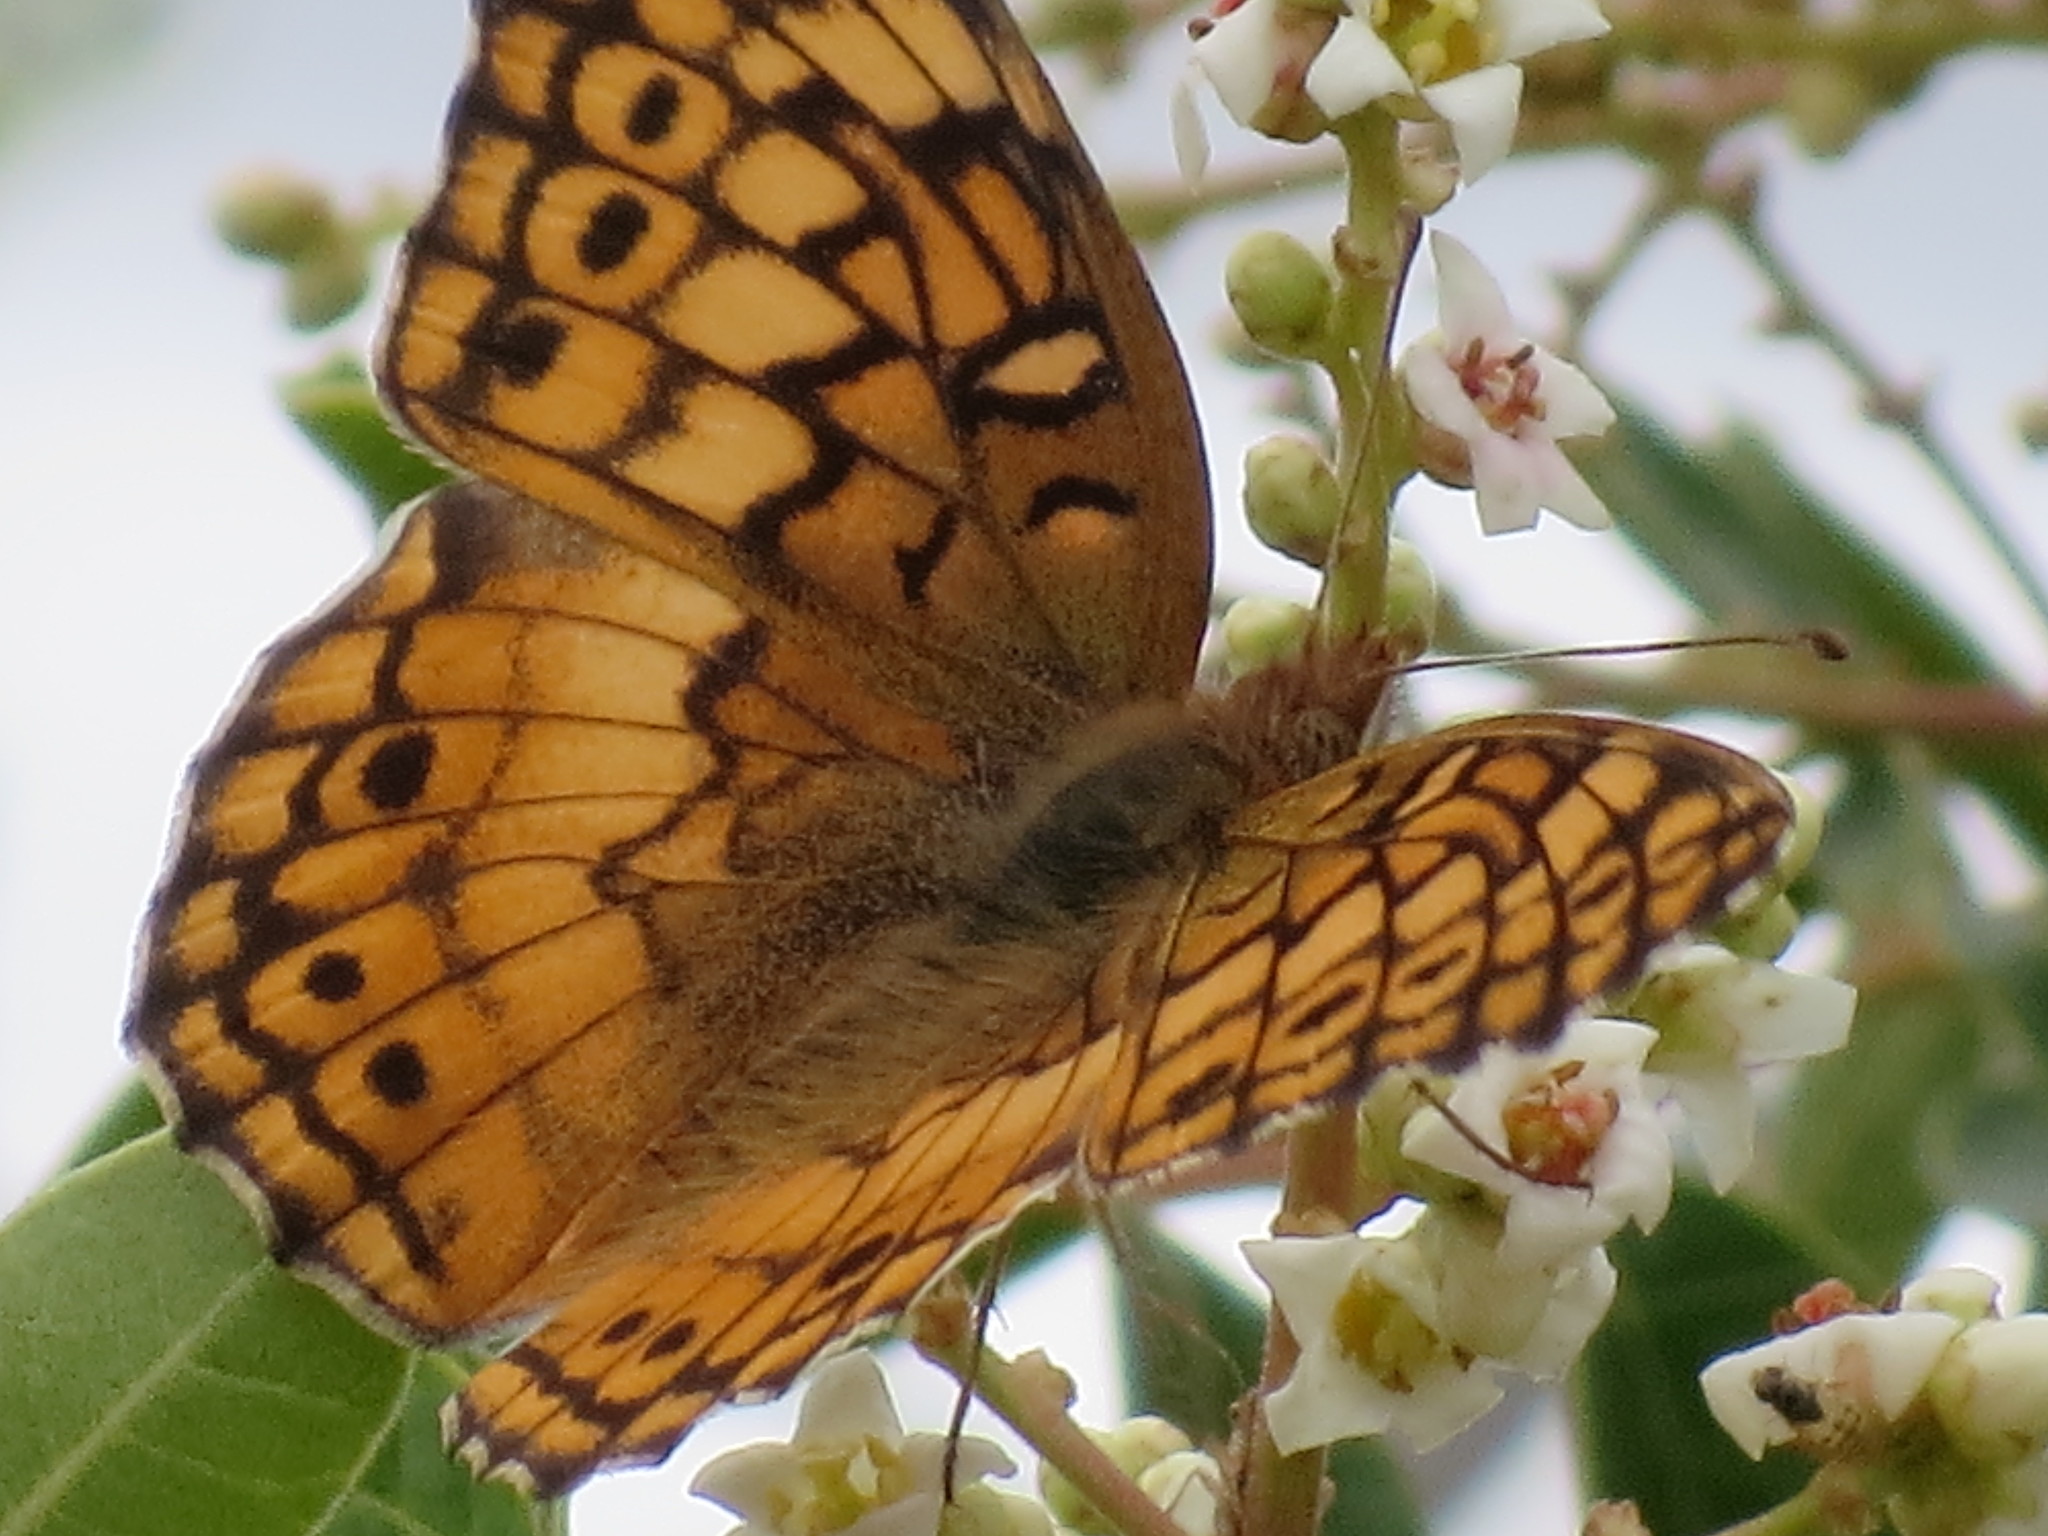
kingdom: Animalia
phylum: Arthropoda
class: Insecta
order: Lepidoptera
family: Nymphalidae
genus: Euptoieta
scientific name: Euptoieta claudia
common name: Variegated fritillary
